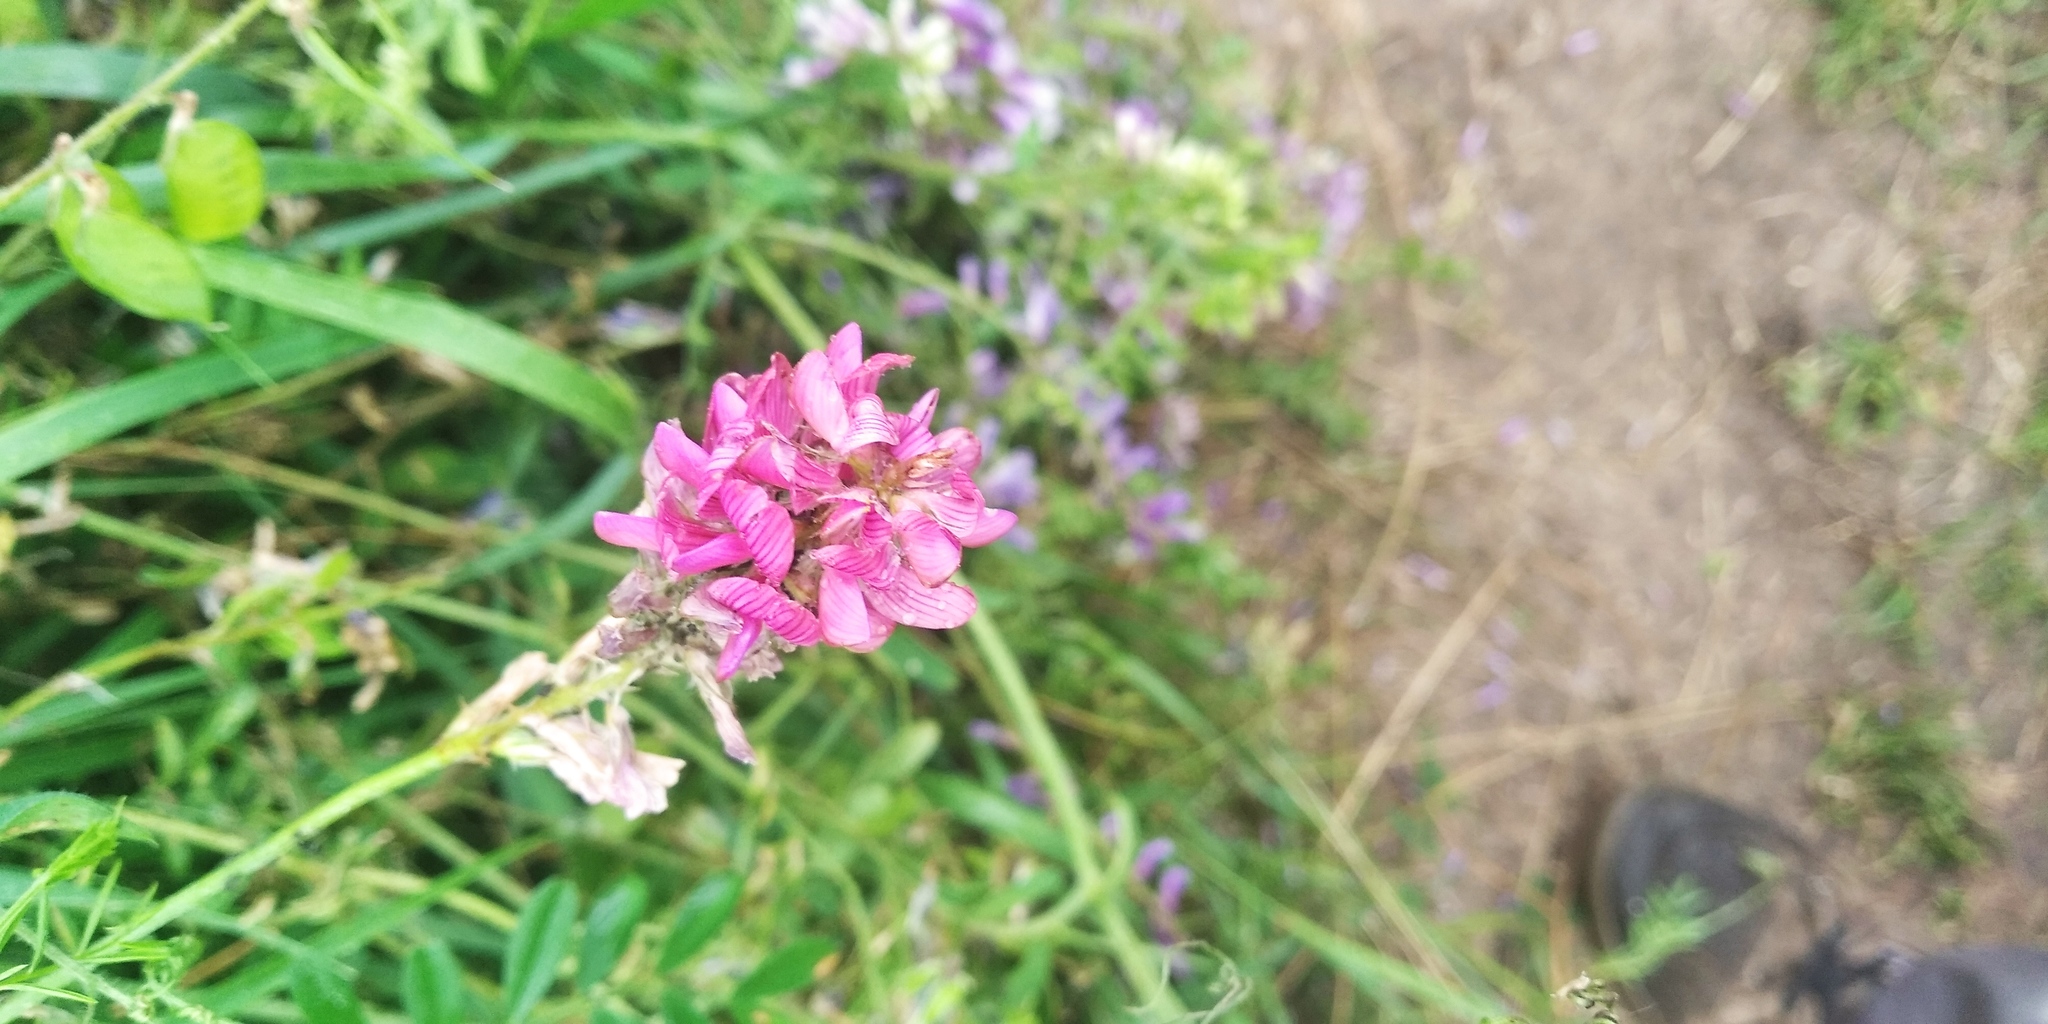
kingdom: Plantae
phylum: Tracheophyta
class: Magnoliopsida
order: Fabales
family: Fabaceae
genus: Onobrychis
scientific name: Onobrychis arenaria
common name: Sand esparcet
